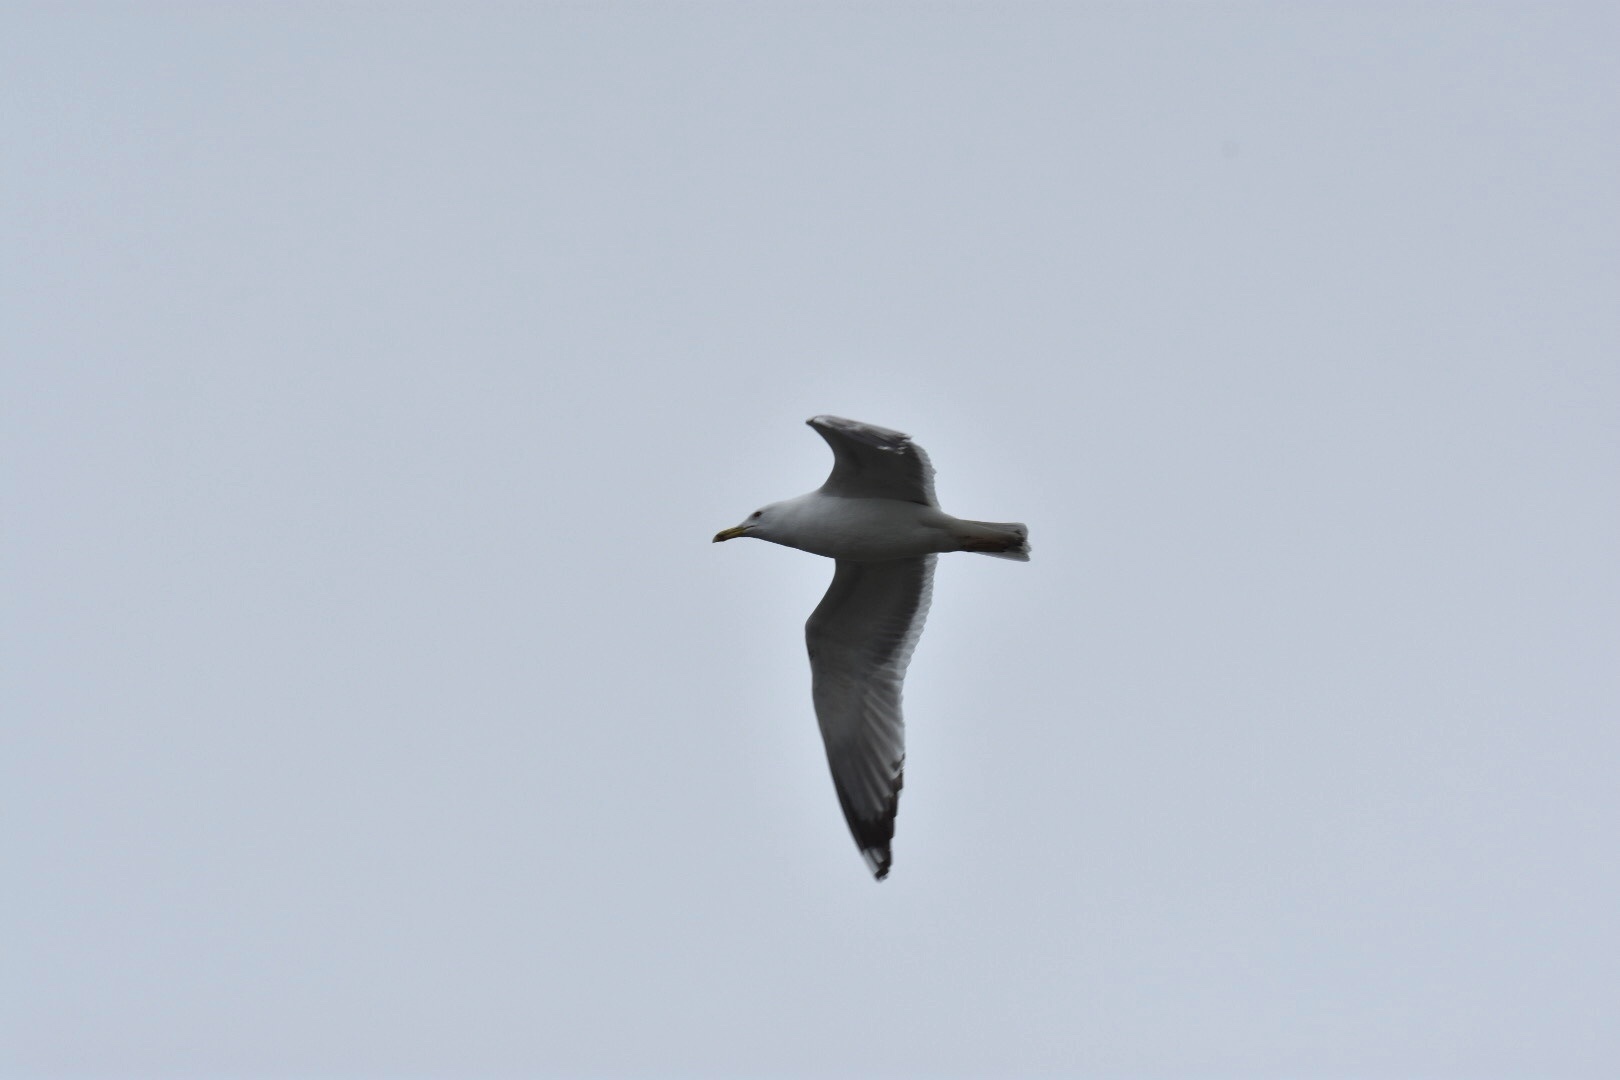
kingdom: Animalia
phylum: Chordata
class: Aves
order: Charadriiformes
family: Laridae
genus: Larus
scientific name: Larus michahellis
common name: Yellow-legged gull
